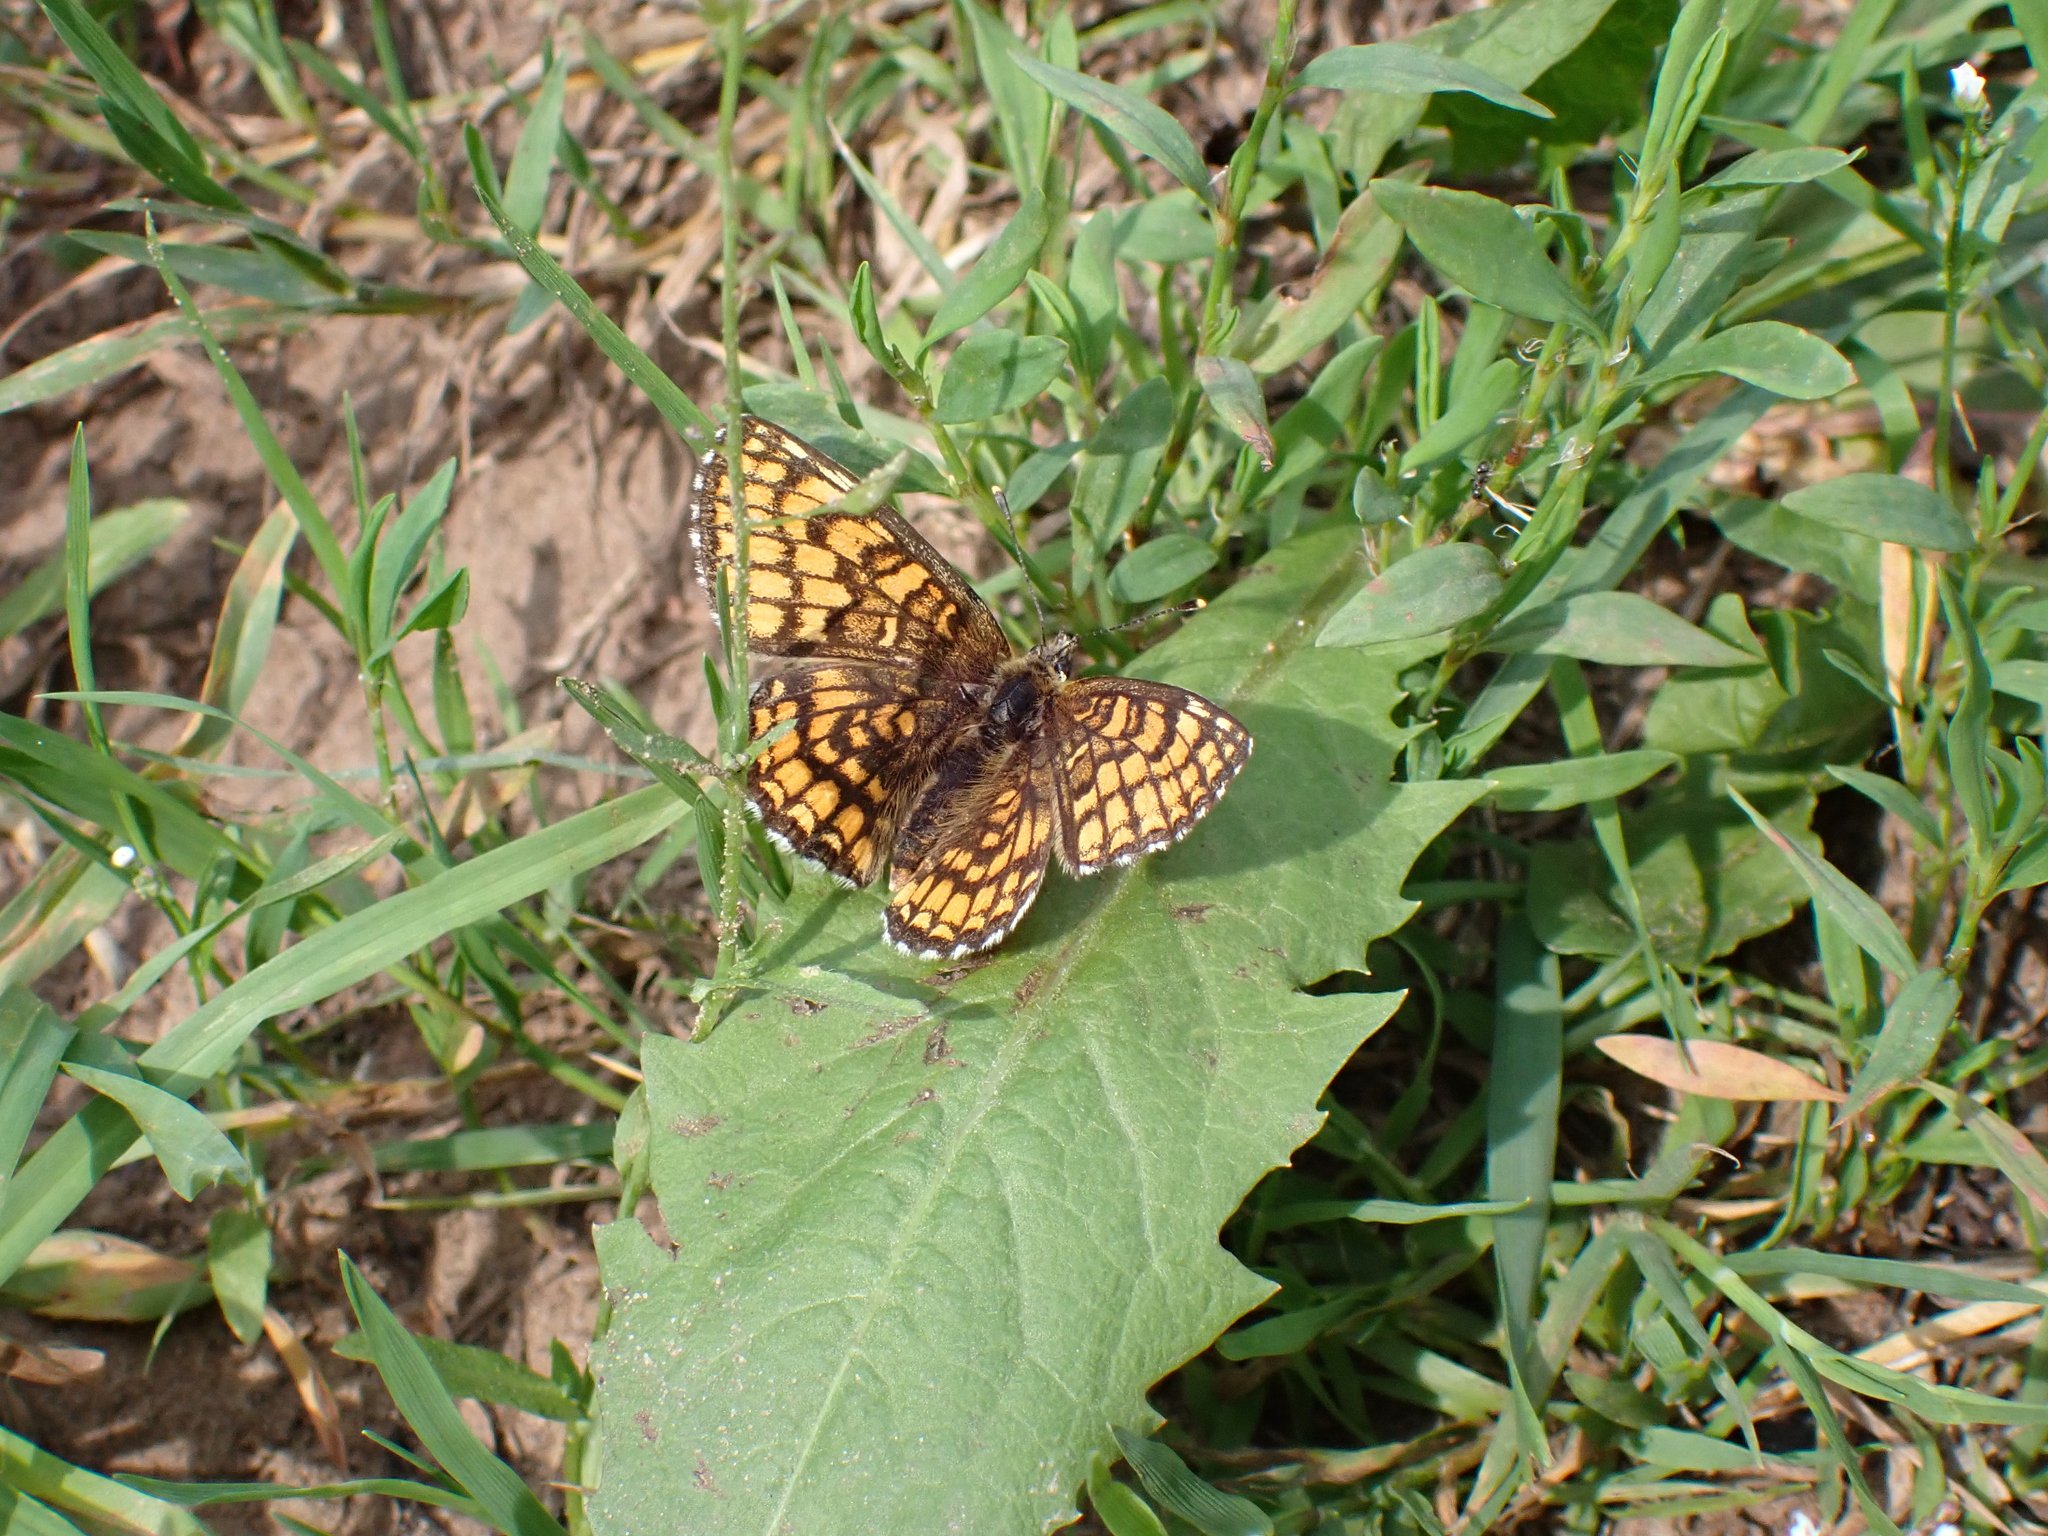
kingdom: Animalia
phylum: Arthropoda
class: Insecta
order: Lepidoptera
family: Nymphalidae
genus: Melitaea
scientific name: Melitaea athalia
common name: Heath fritillary
